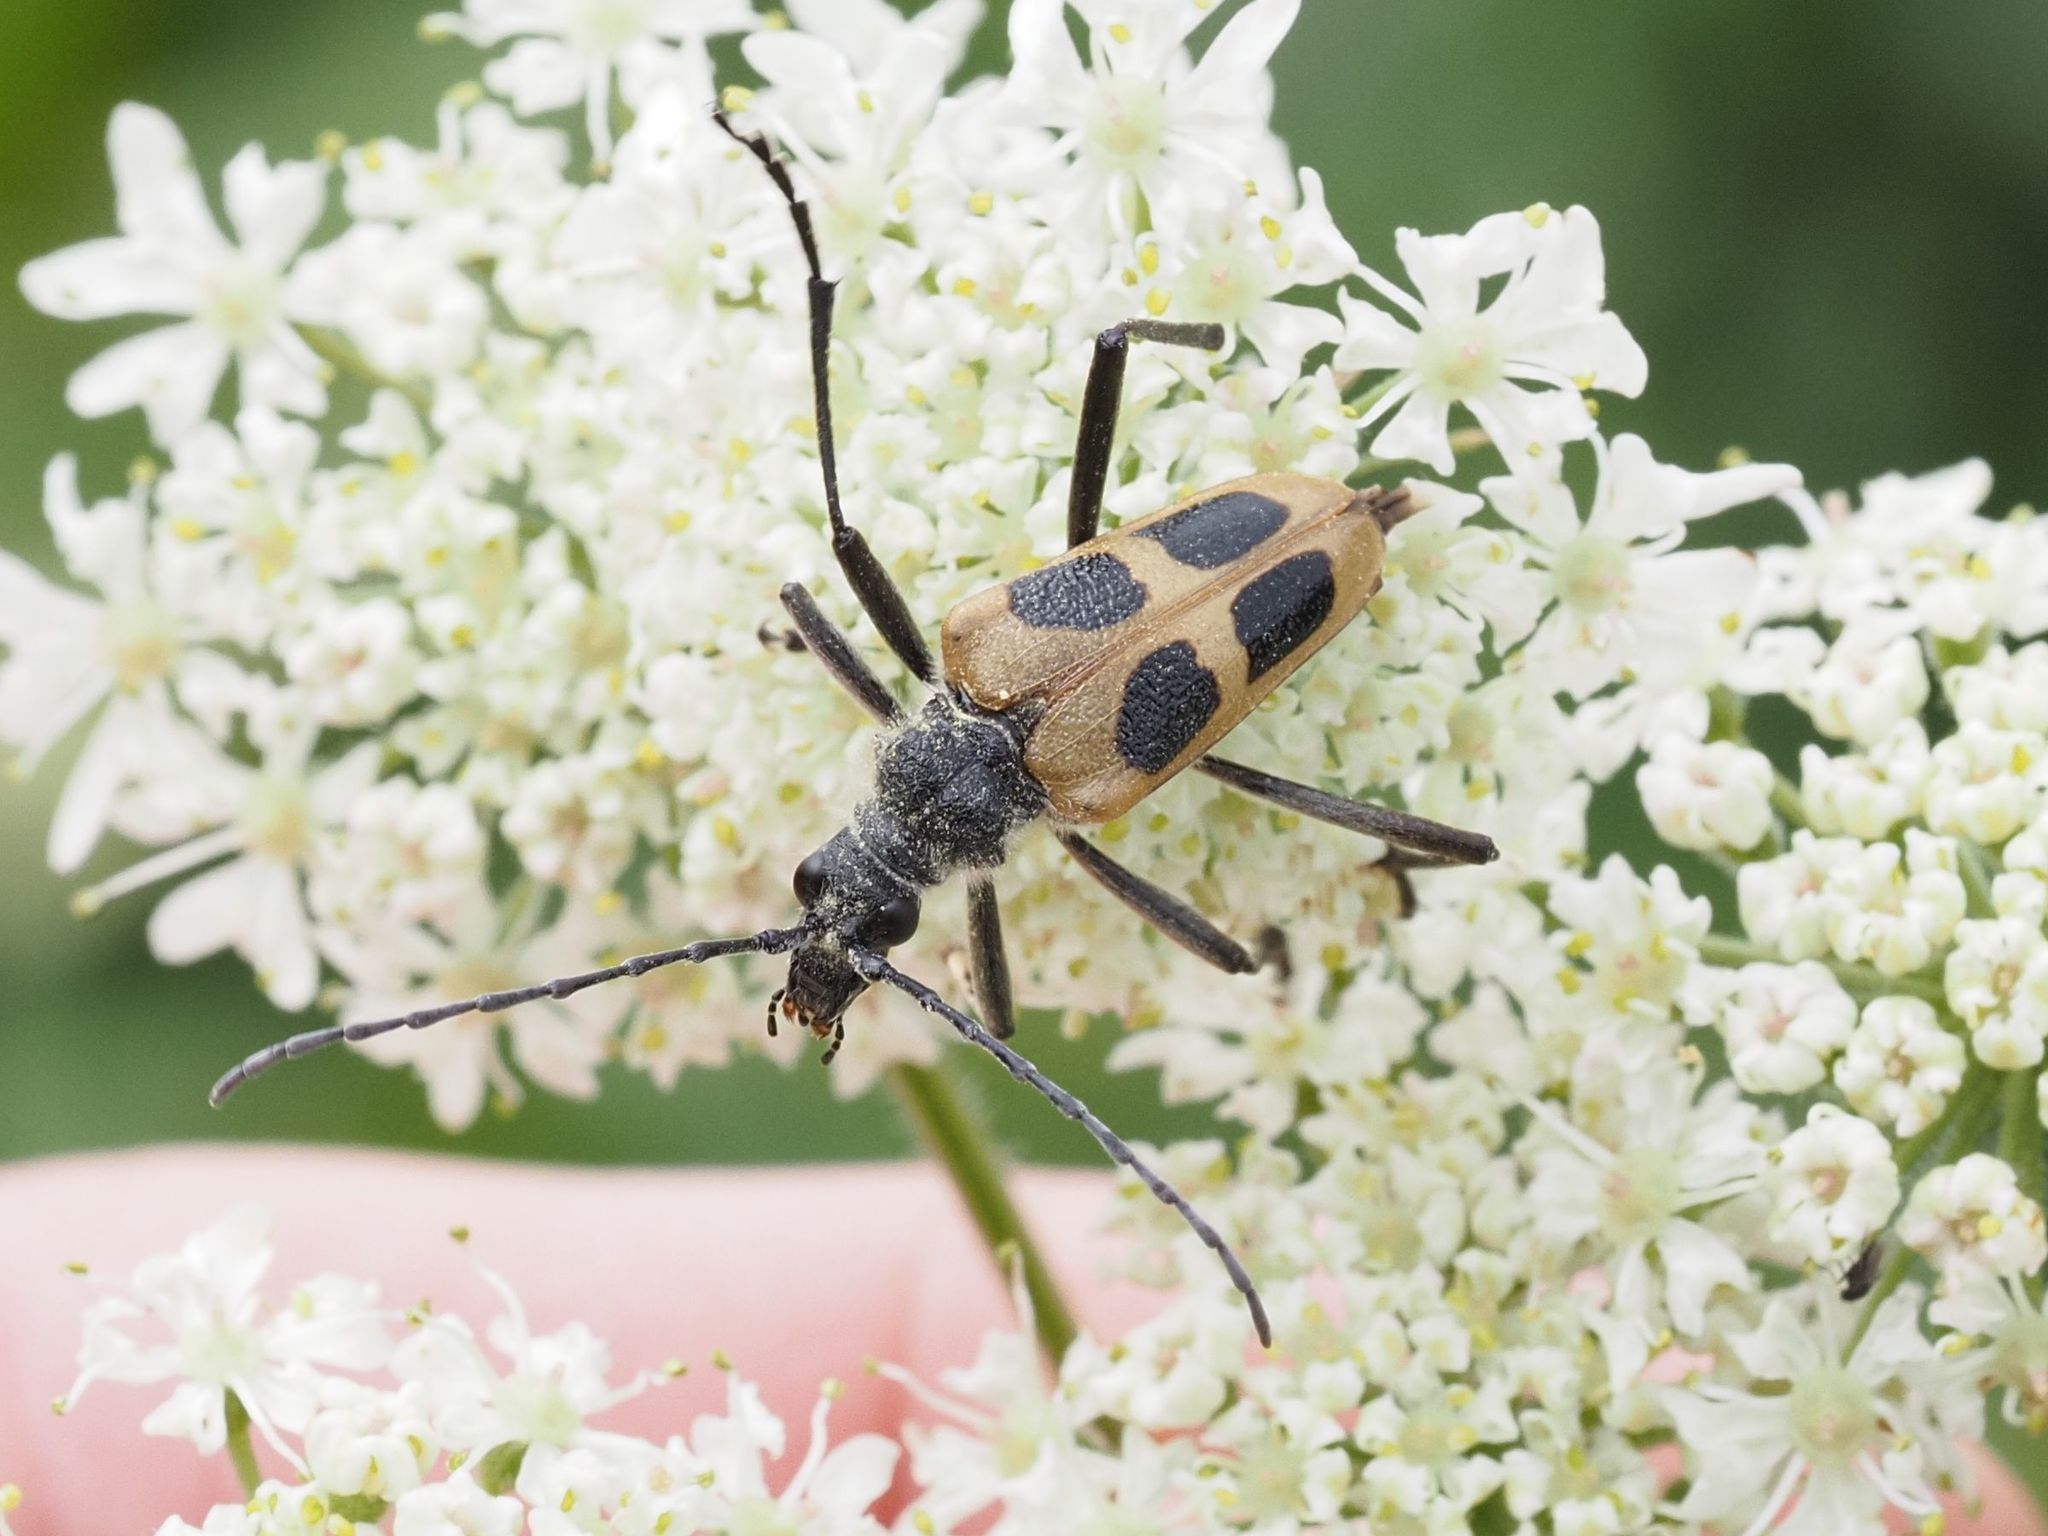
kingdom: Animalia
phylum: Arthropoda
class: Insecta
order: Coleoptera
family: Cerambycidae
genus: Pachyta
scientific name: Pachyta quadrimaculata
